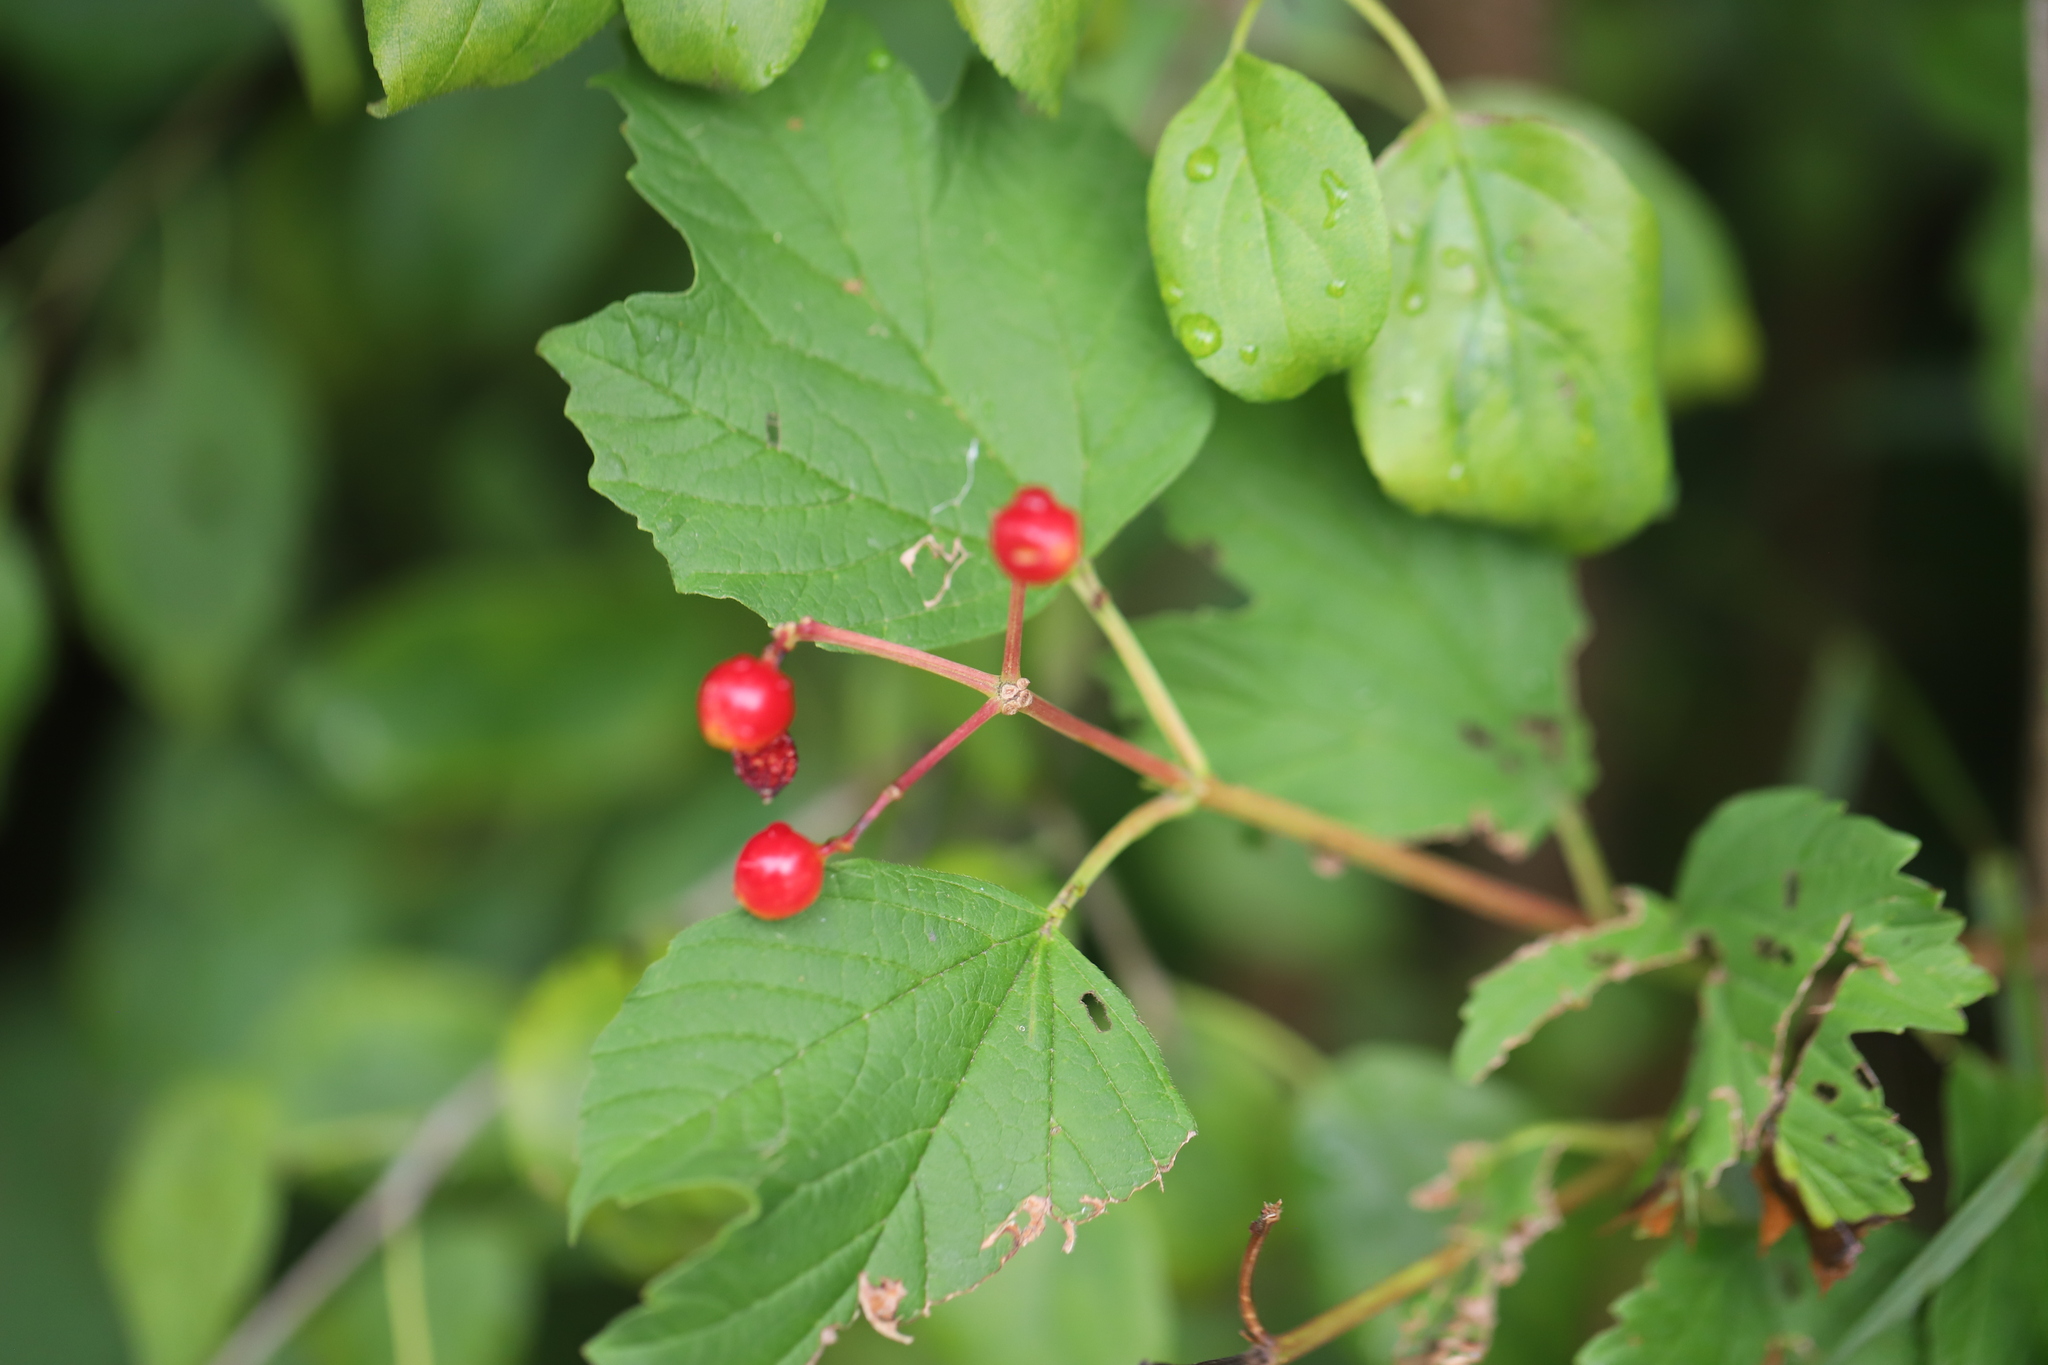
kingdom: Plantae
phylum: Tracheophyta
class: Magnoliopsida
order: Dipsacales
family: Viburnaceae
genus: Viburnum
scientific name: Viburnum opulus
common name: Guelder-rose
